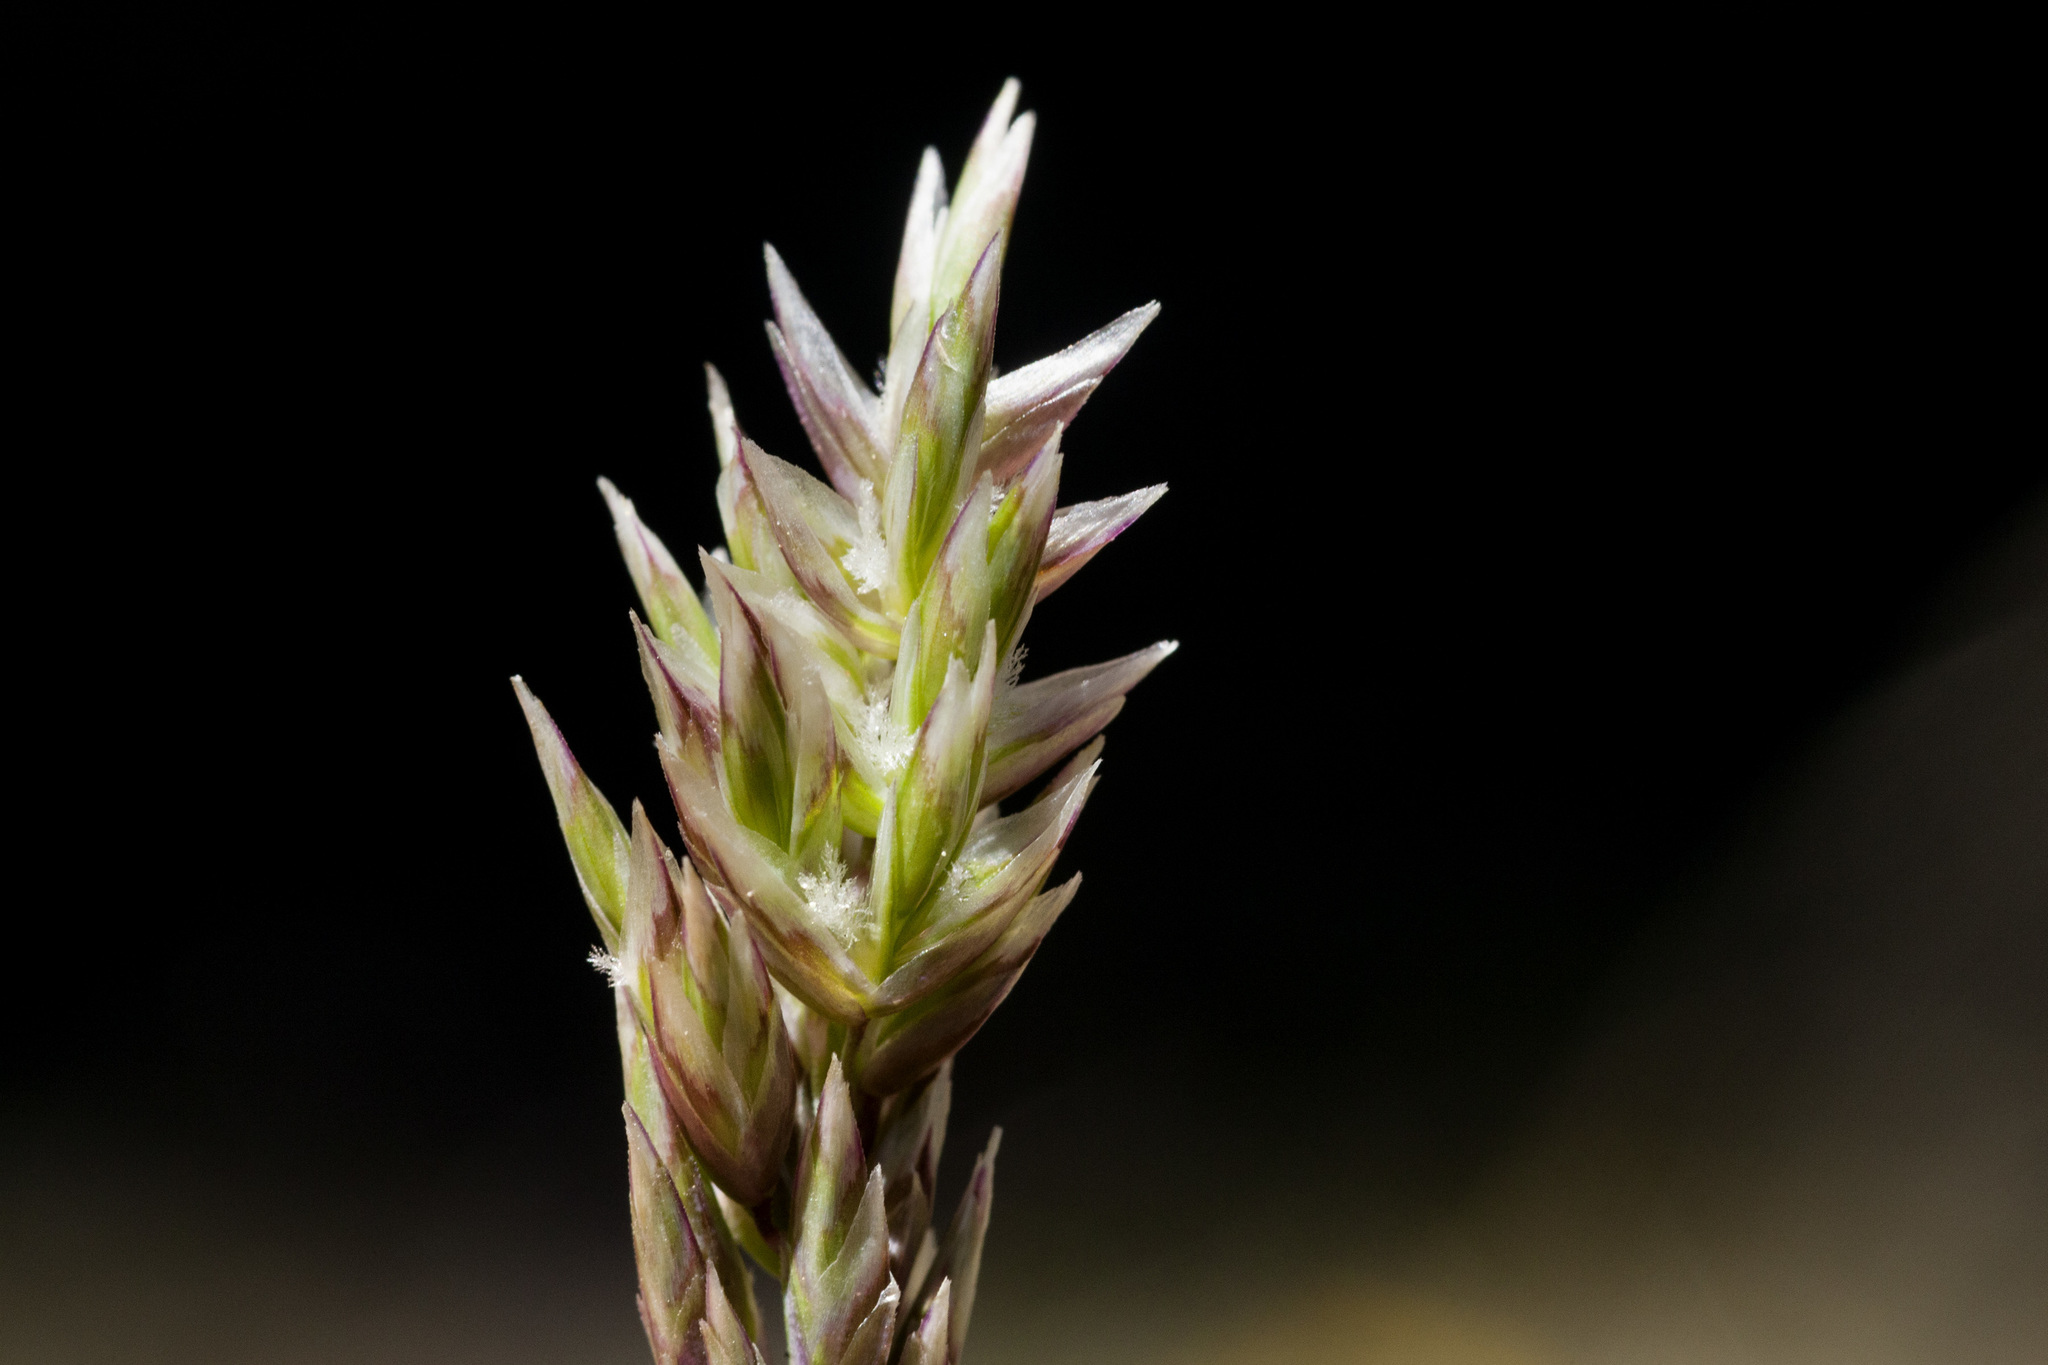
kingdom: Plantae
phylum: Tracheophyta
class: Liliopsida
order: Poales
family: Poaceae
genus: Poa
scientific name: Poa fendleriana
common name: Mutton bluegrass
